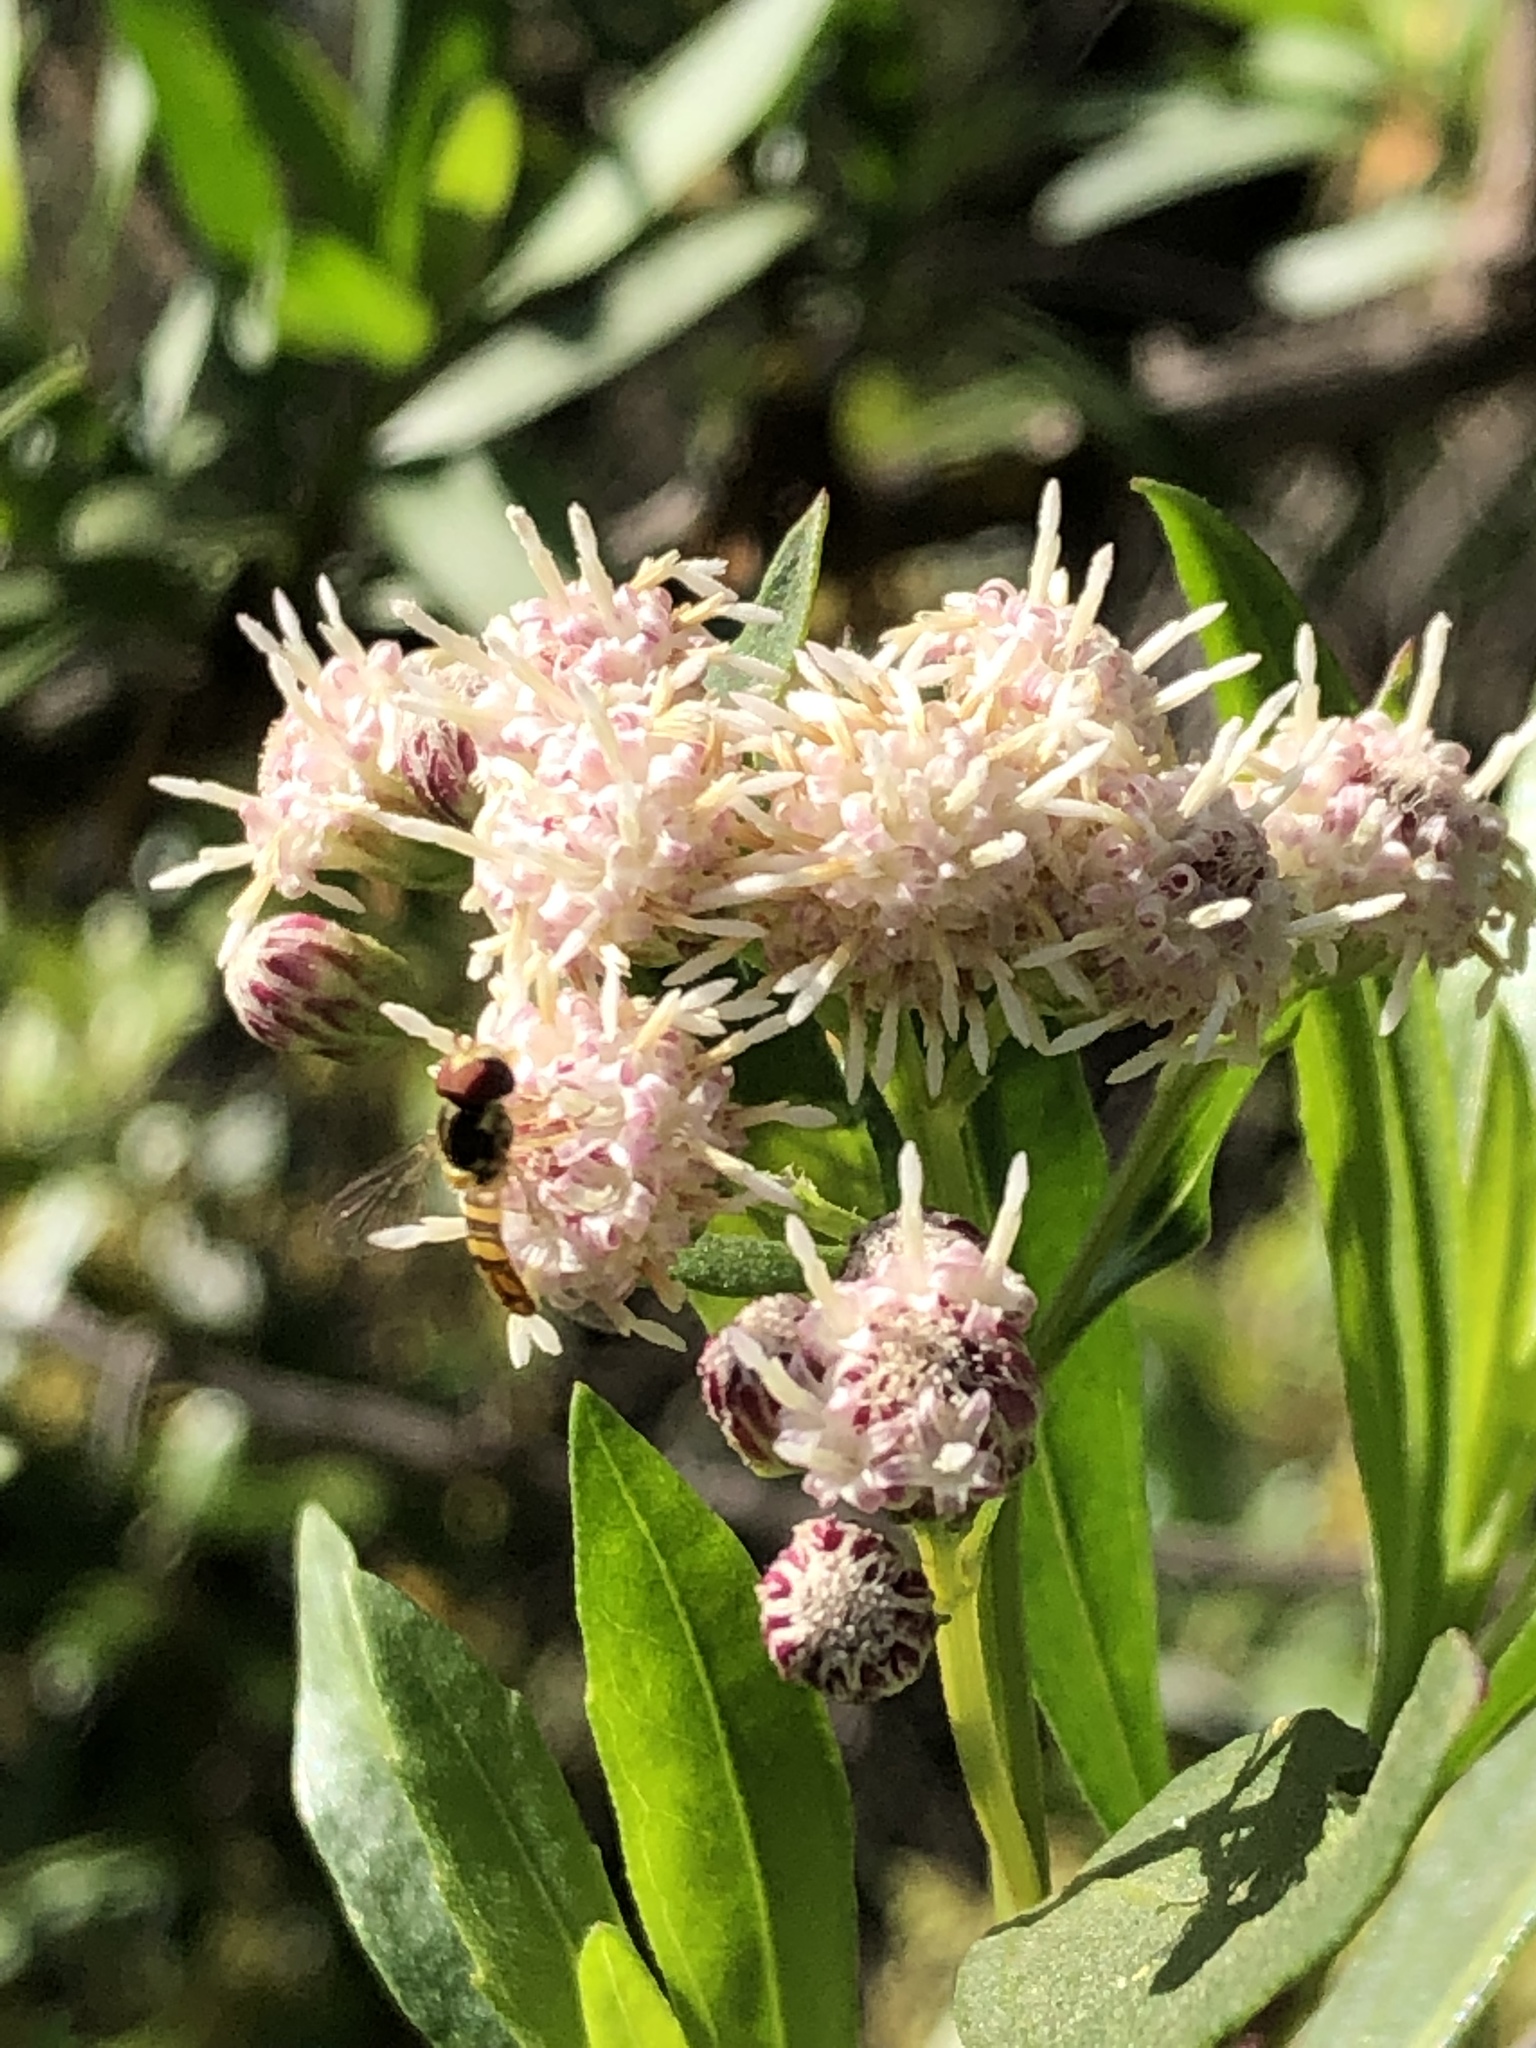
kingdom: Animalia
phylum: Arthropoda
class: Insecta
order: Diptera
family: Syrphidae
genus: Allograpta
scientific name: Allograpta obliqua
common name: Common oblique syrphid
